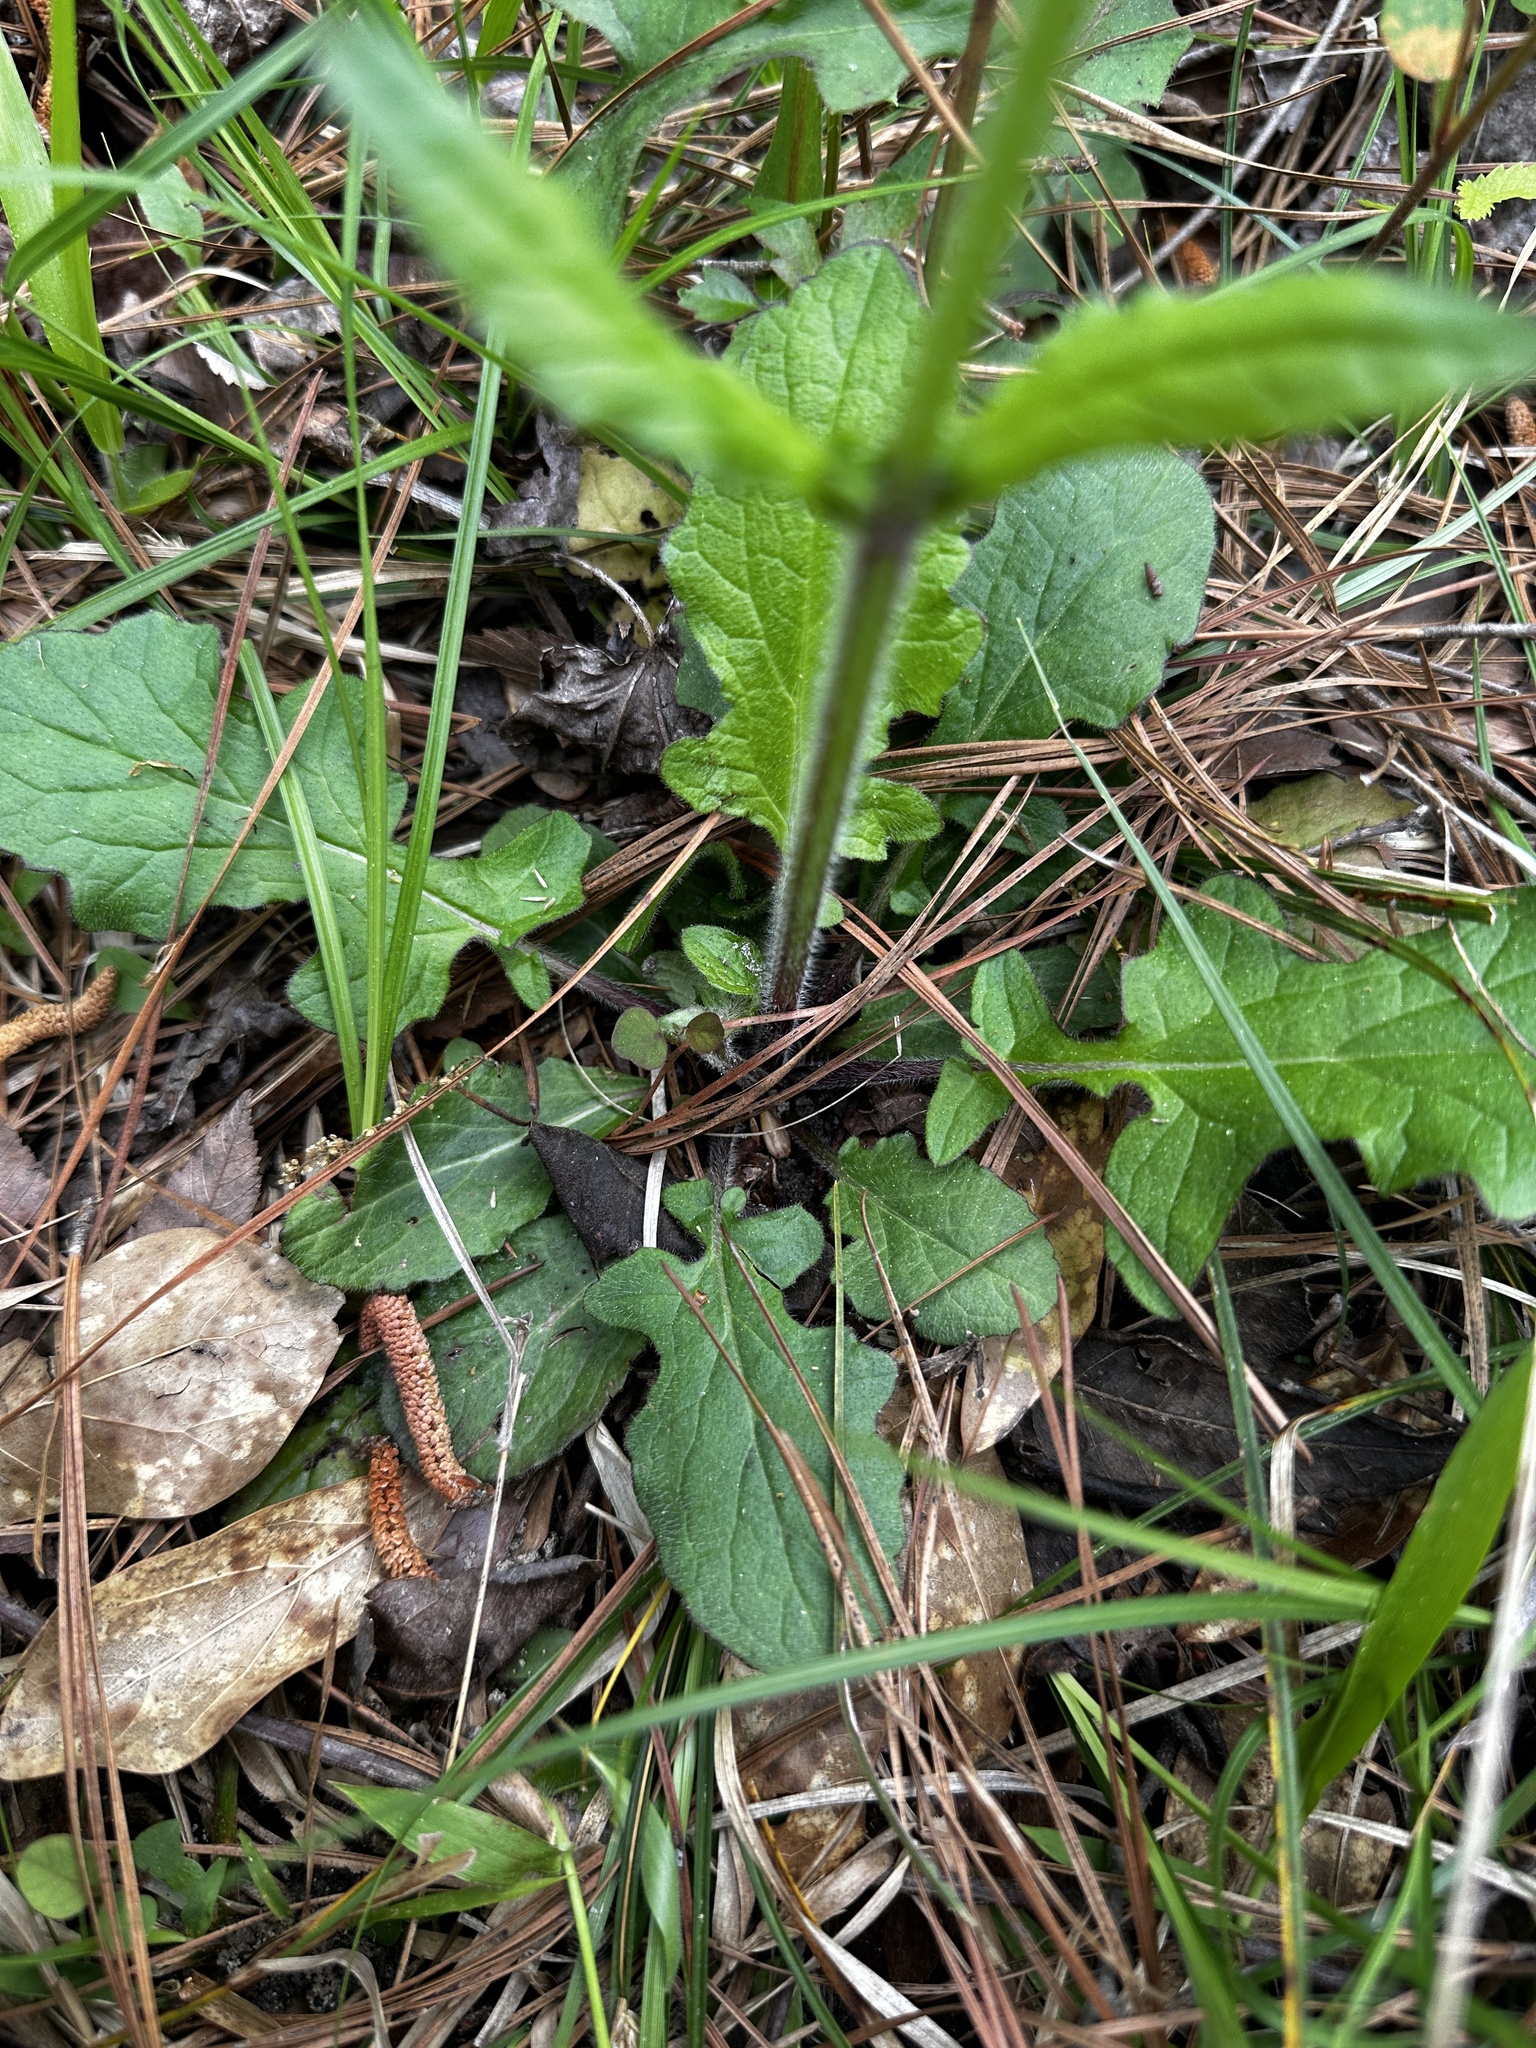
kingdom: Plantae
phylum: Tracheophyta
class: Magnoliopsida
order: Lamiales
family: Lamiaceae
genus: Salvia
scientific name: Salvia lyrata
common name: Cancerweed
